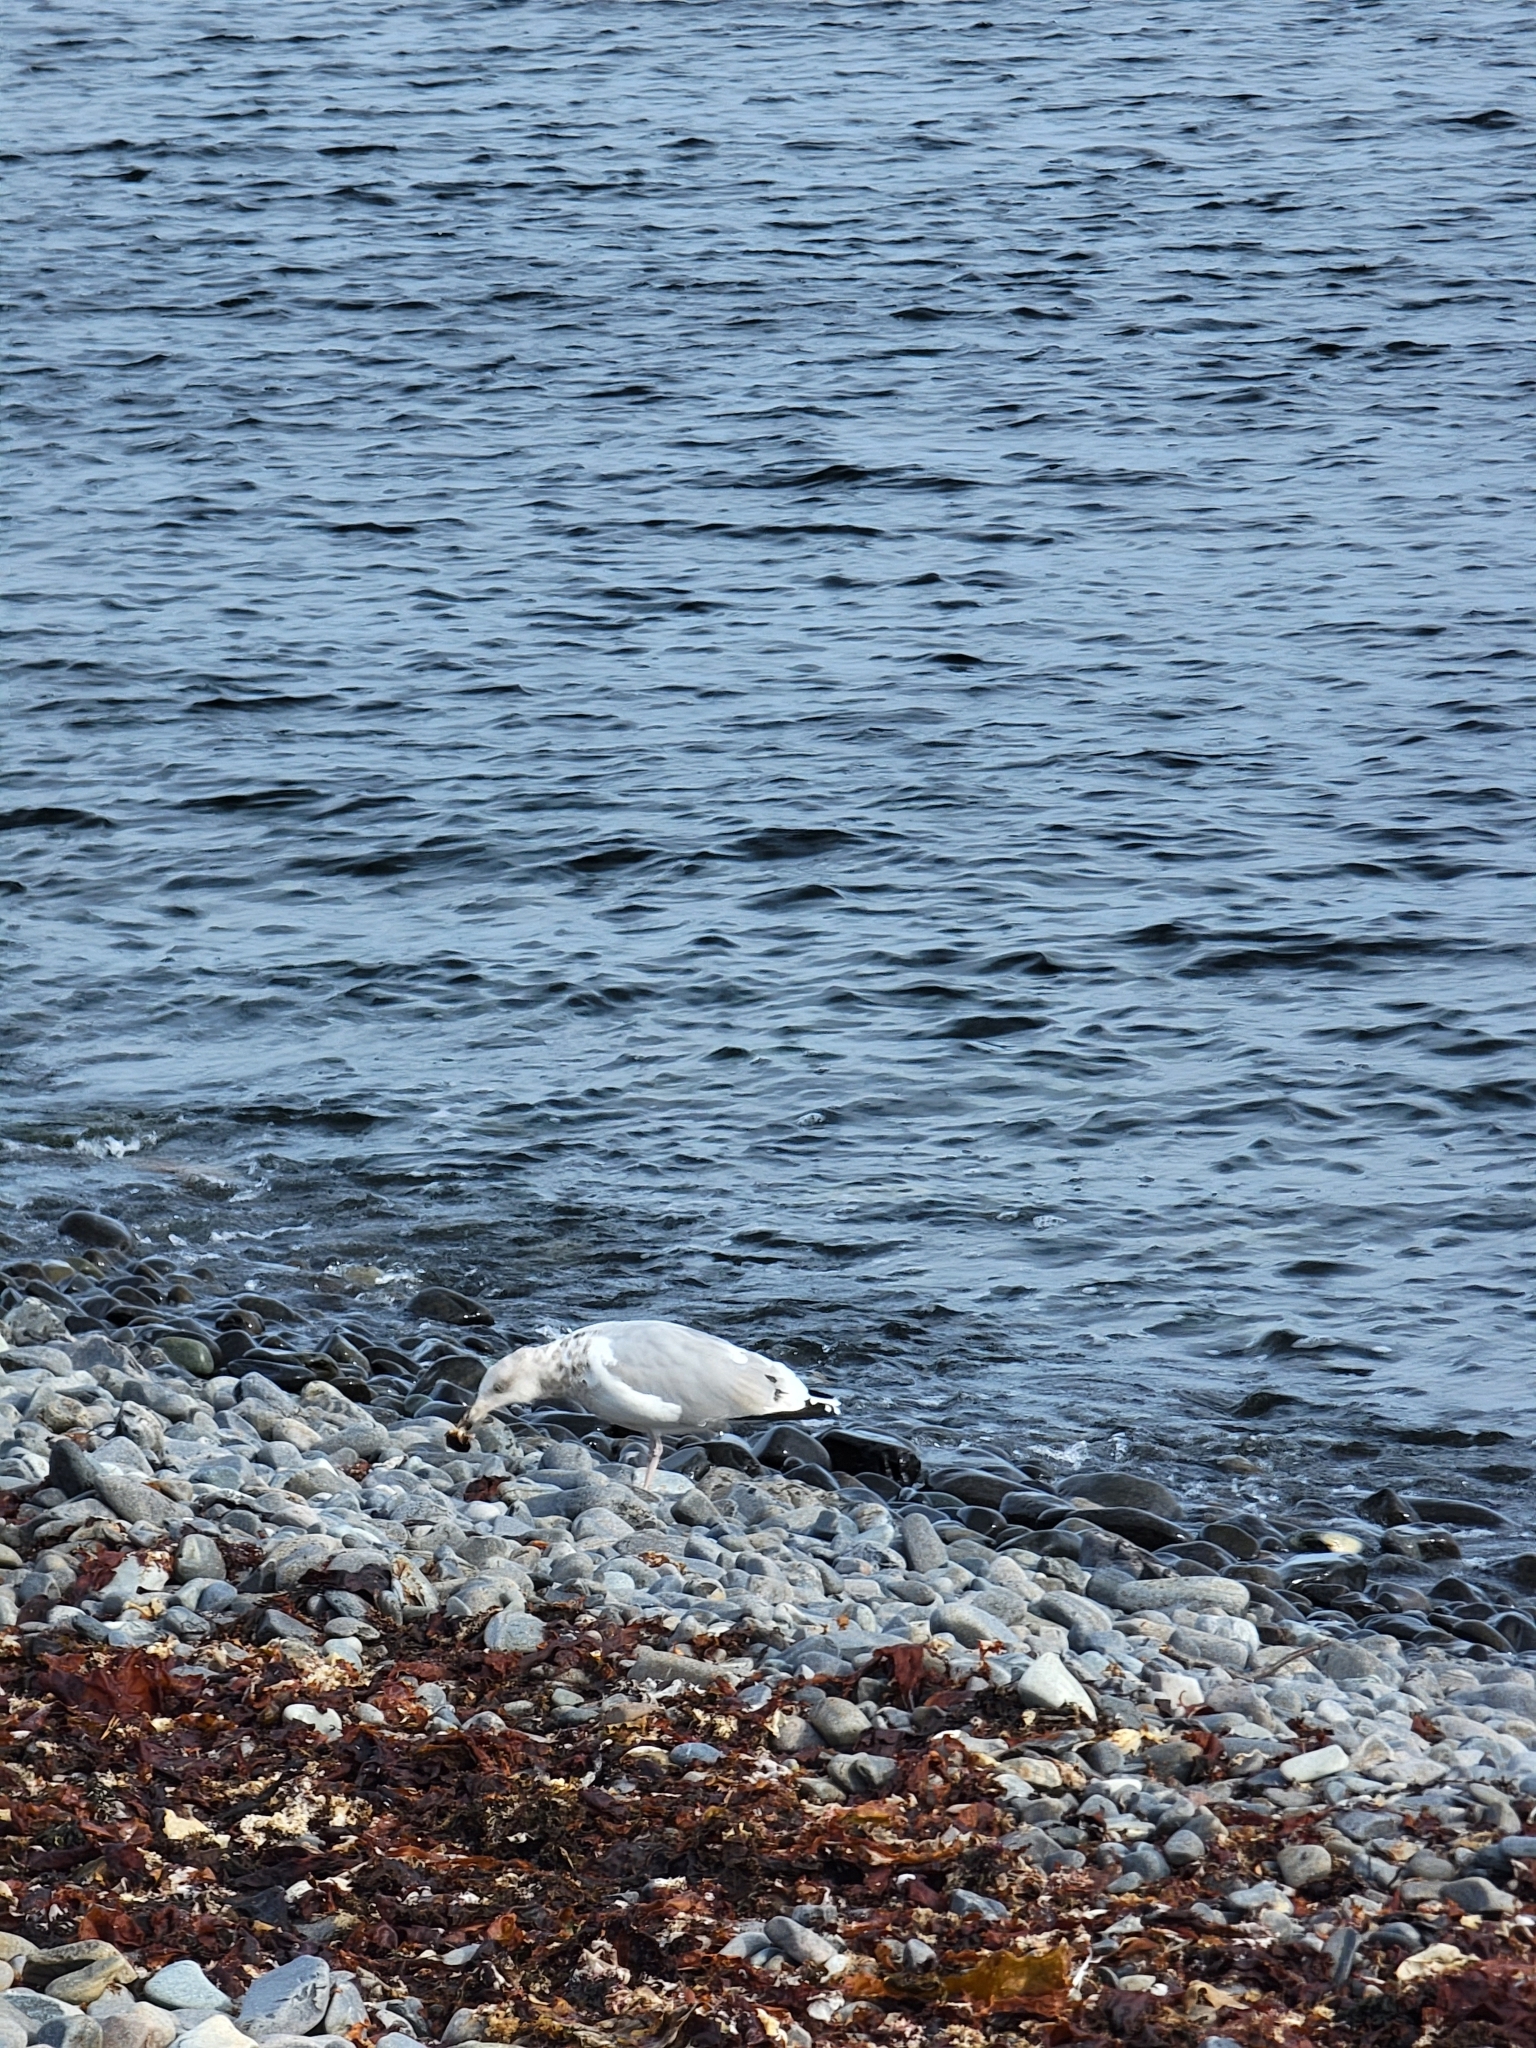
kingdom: Animalia
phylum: Chordata
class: Aves
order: Charadriiformes
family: Laridae
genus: Larus
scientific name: Larus argentatus
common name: Herring gull
